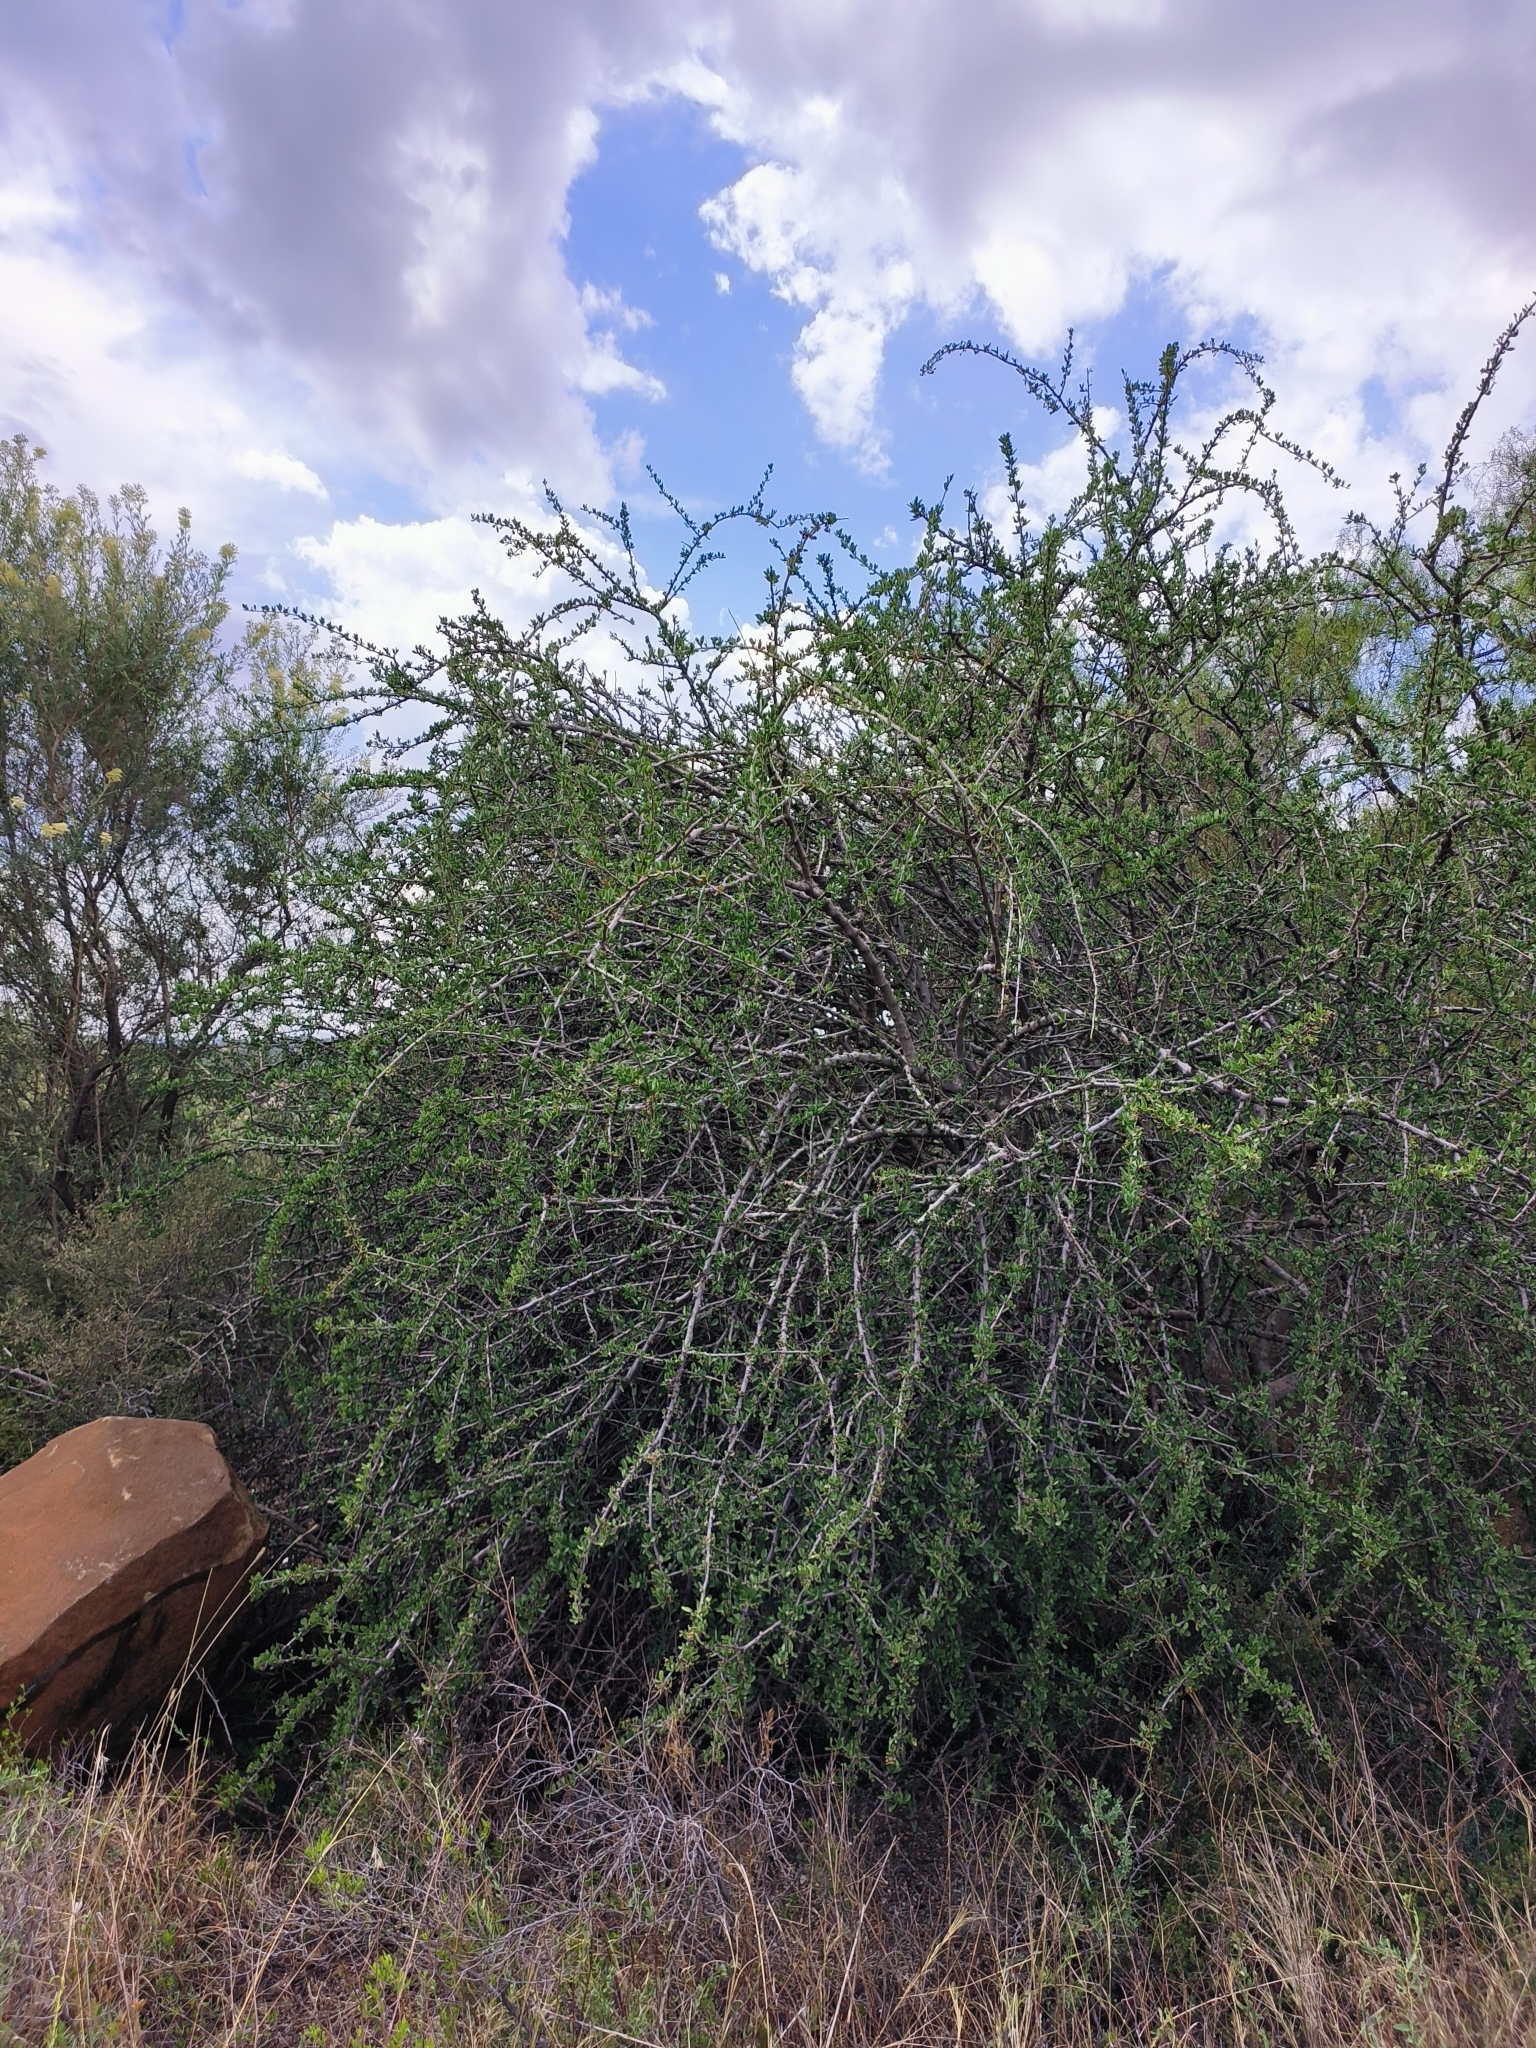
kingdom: Plantae
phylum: Tracheophyta
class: Magnoliopsida
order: Boraginales
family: Ehretiaceae
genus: Ehretia
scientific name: Ehretia rigida
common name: Cape lilac
